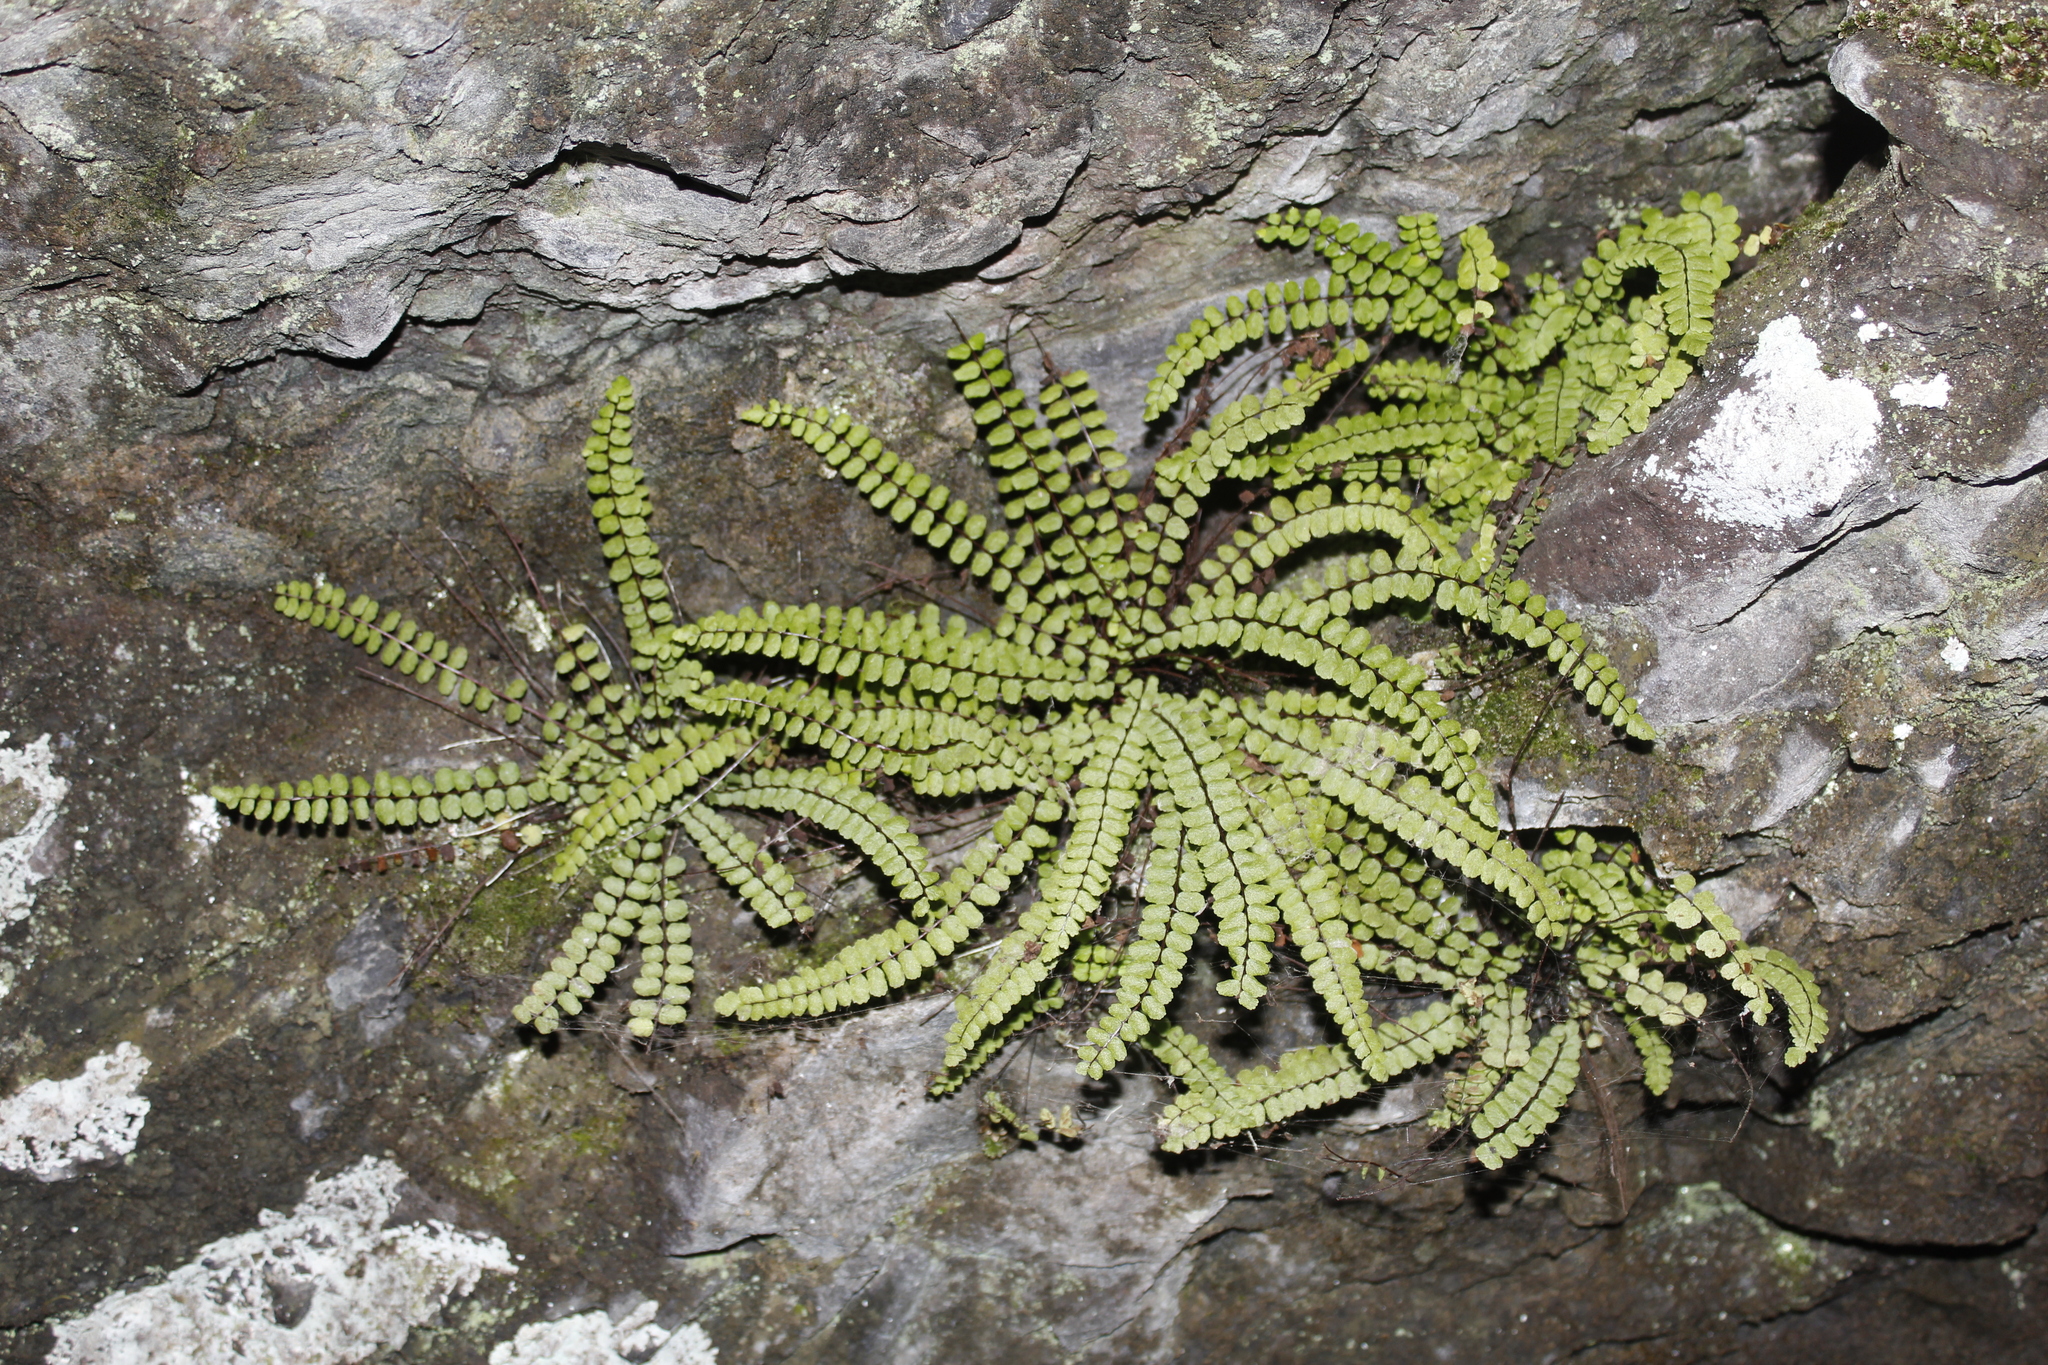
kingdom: Plantae
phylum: Tracheophyta
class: Polypodiopsida
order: Polypodiales
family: Aspleniaceae
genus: Asplenium
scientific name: Asplenium trichomanes
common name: Maidenhair spleenwort
